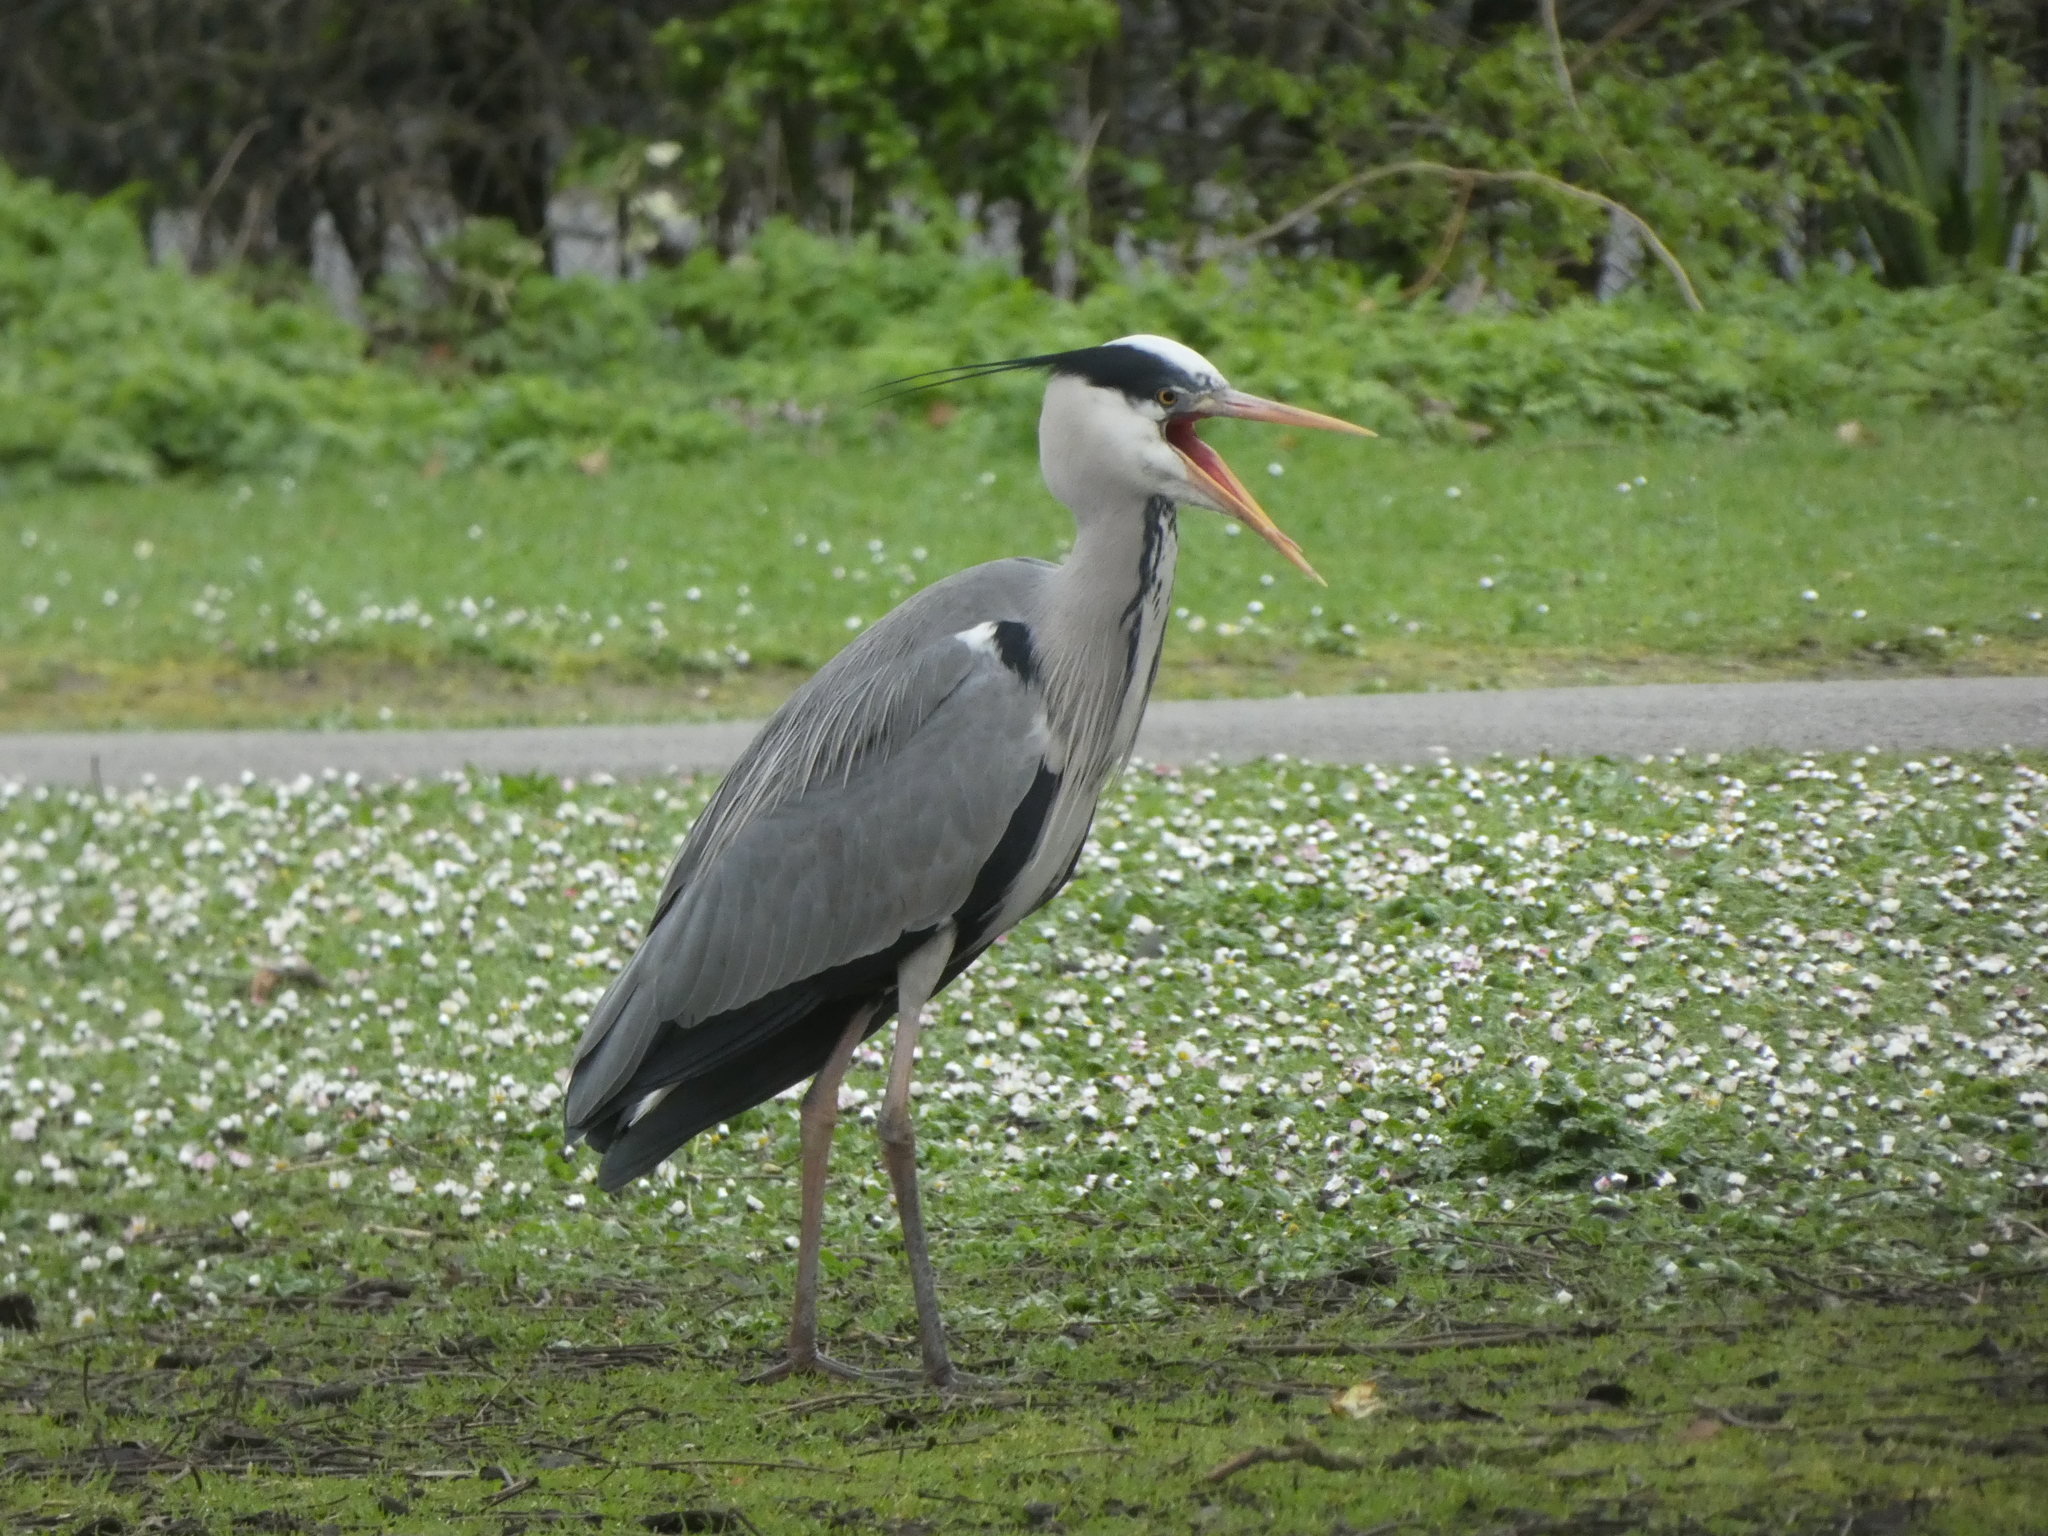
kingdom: Animalia
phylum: Chordata
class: Aves
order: Pelecaniformes
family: Ardeidae
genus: Ardea
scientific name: Ardea cinerea
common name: Grey heron
